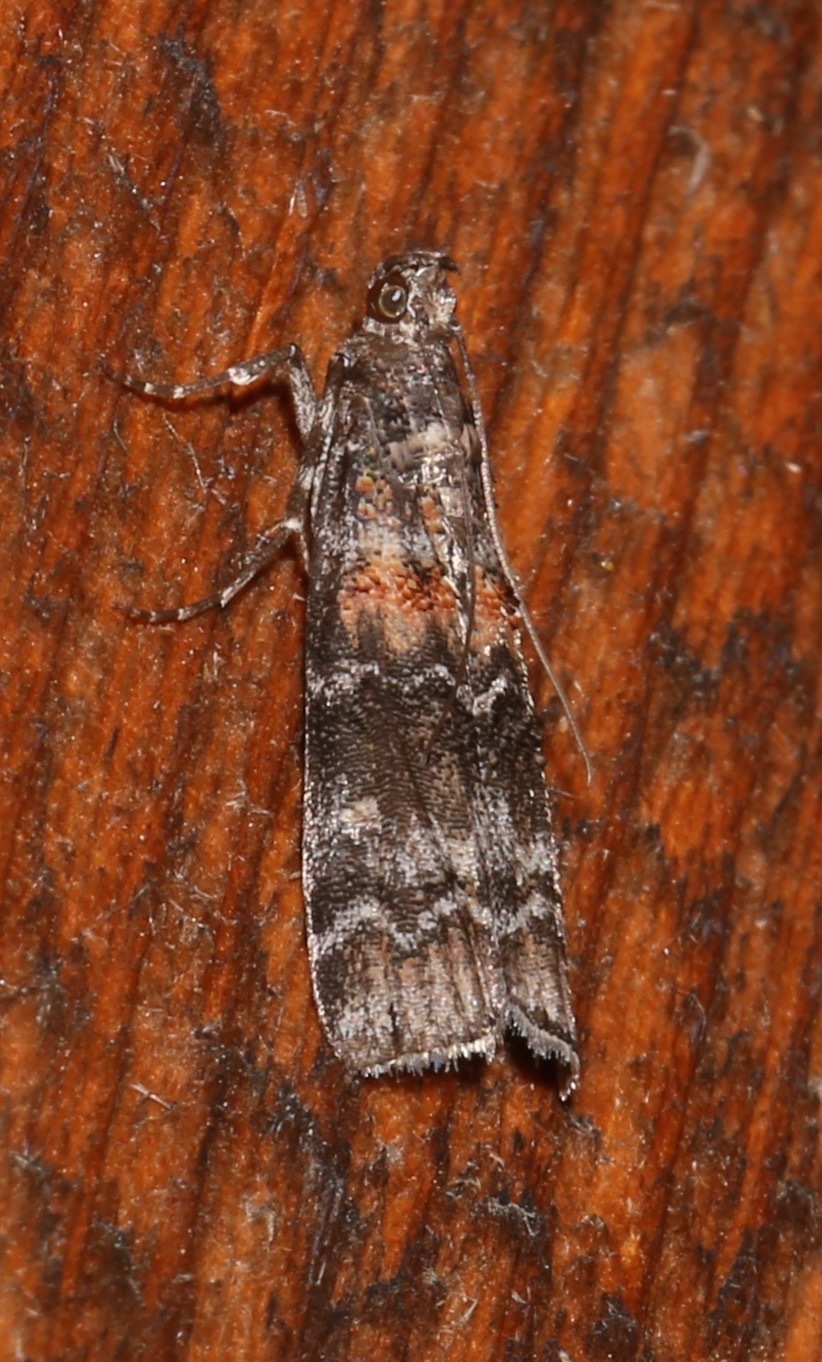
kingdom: Animalia
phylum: Arthropoda
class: Insecta
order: Lepidoptera
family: Pyralidae
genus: Dioryctria
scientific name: Dioryctria zimmermani
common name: Zimmerman pine moth
